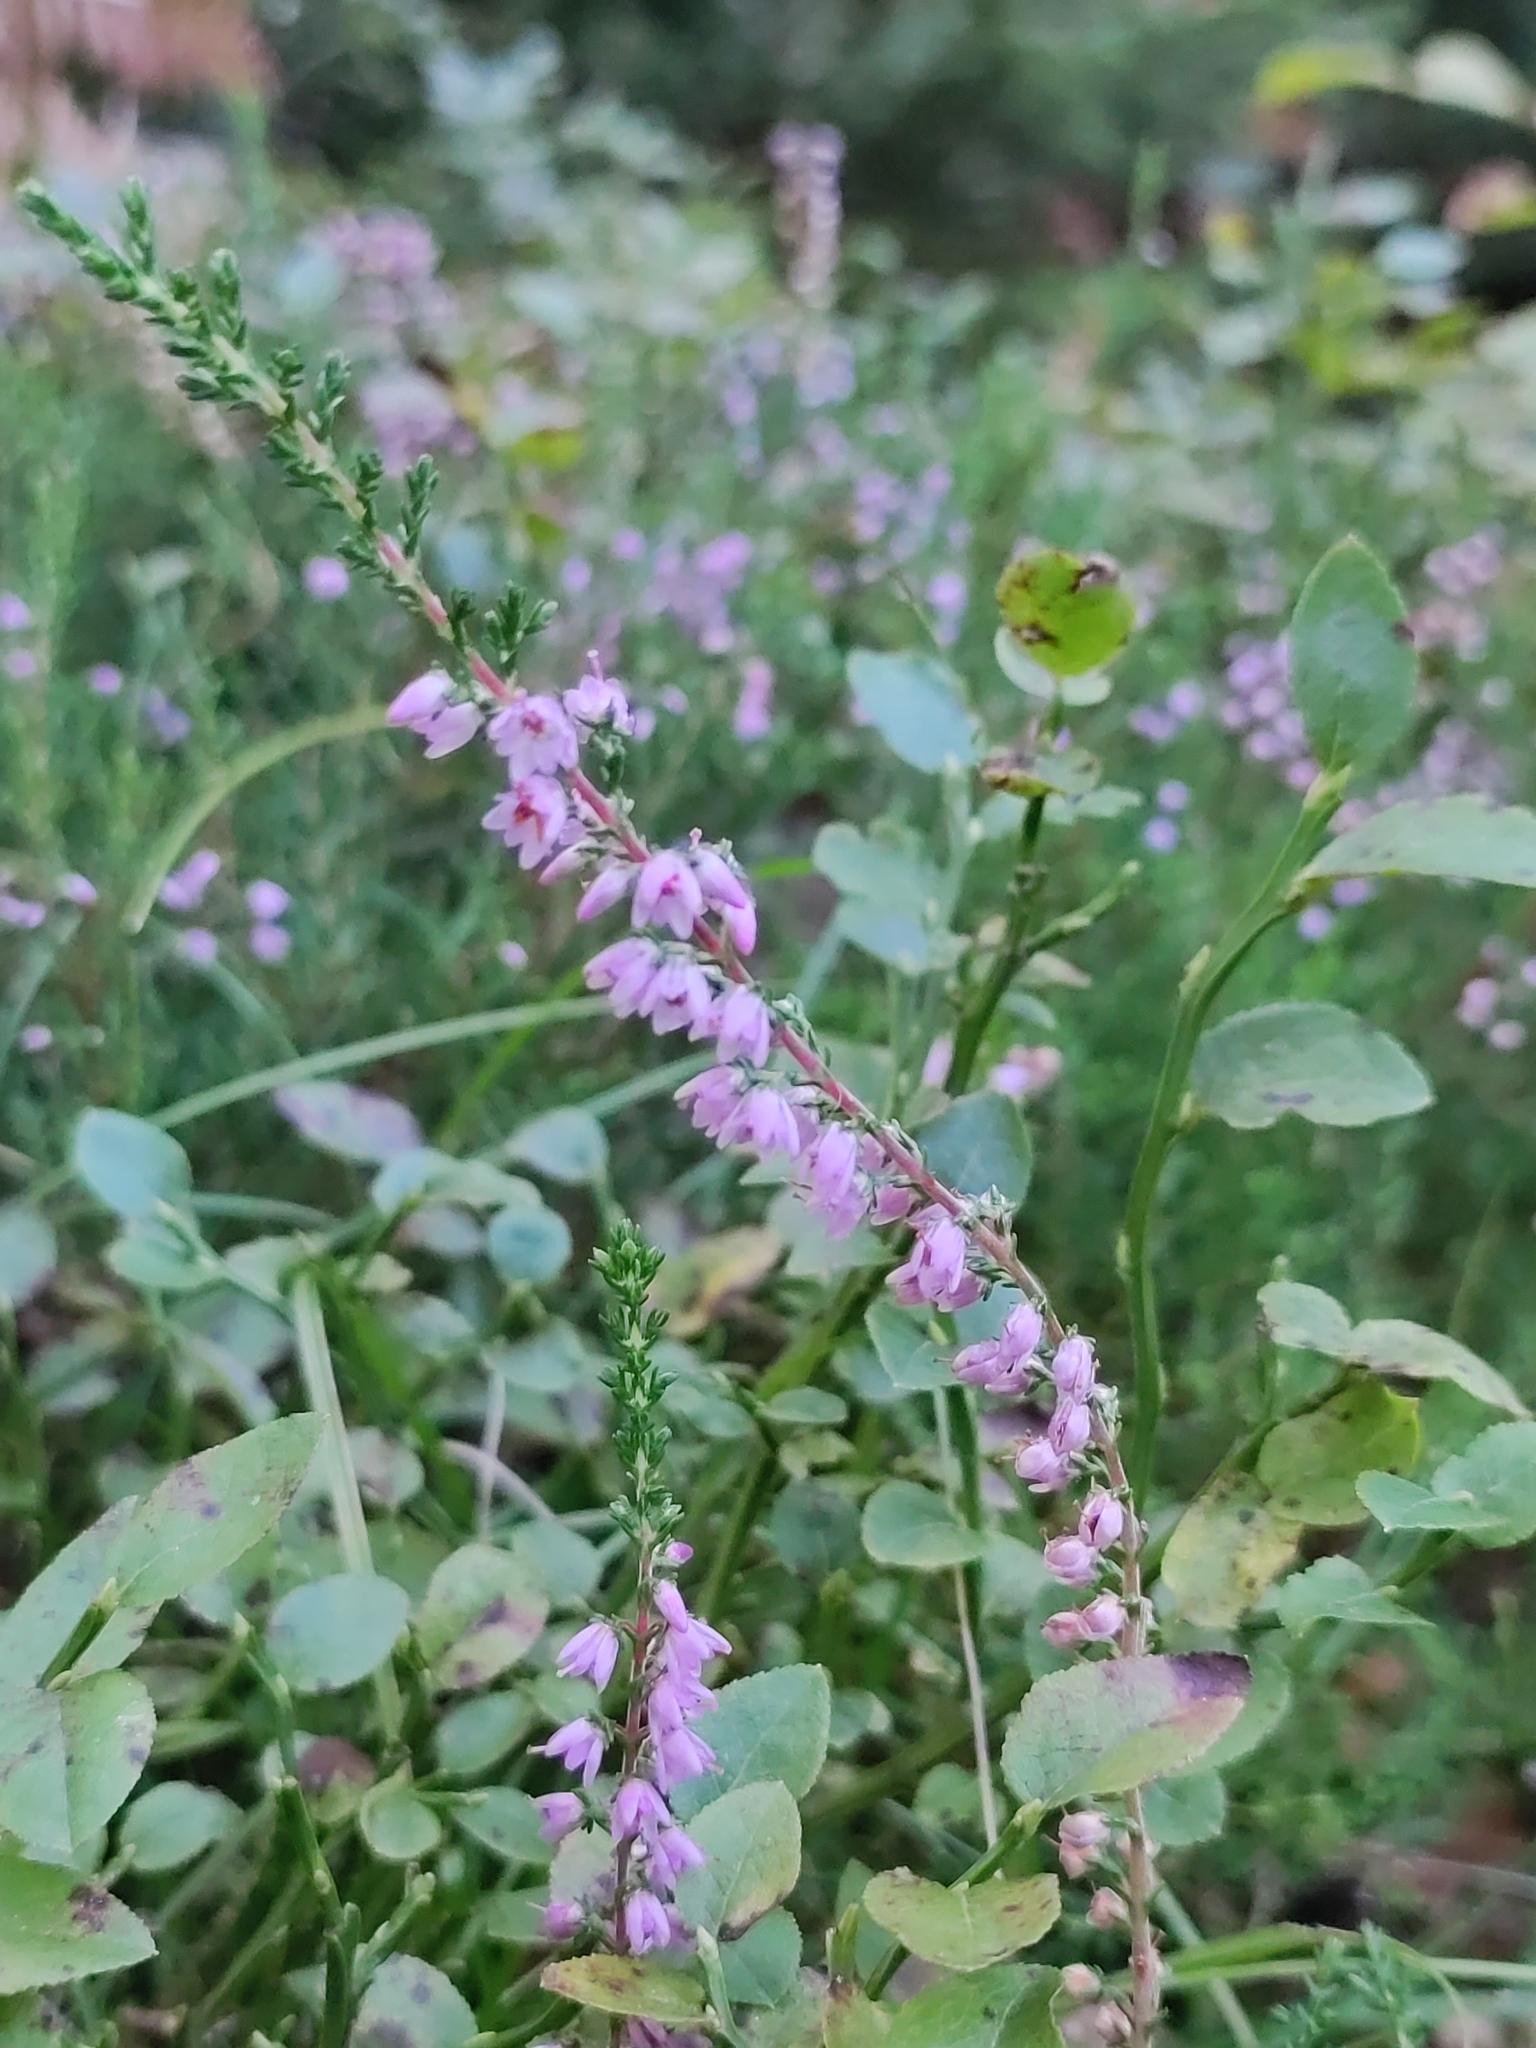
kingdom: Plantae
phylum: Tracheophyta
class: Magnoliopsida
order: Ericales
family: Ericaceae
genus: Calluna
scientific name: Calluna vulgaris
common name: Heather
